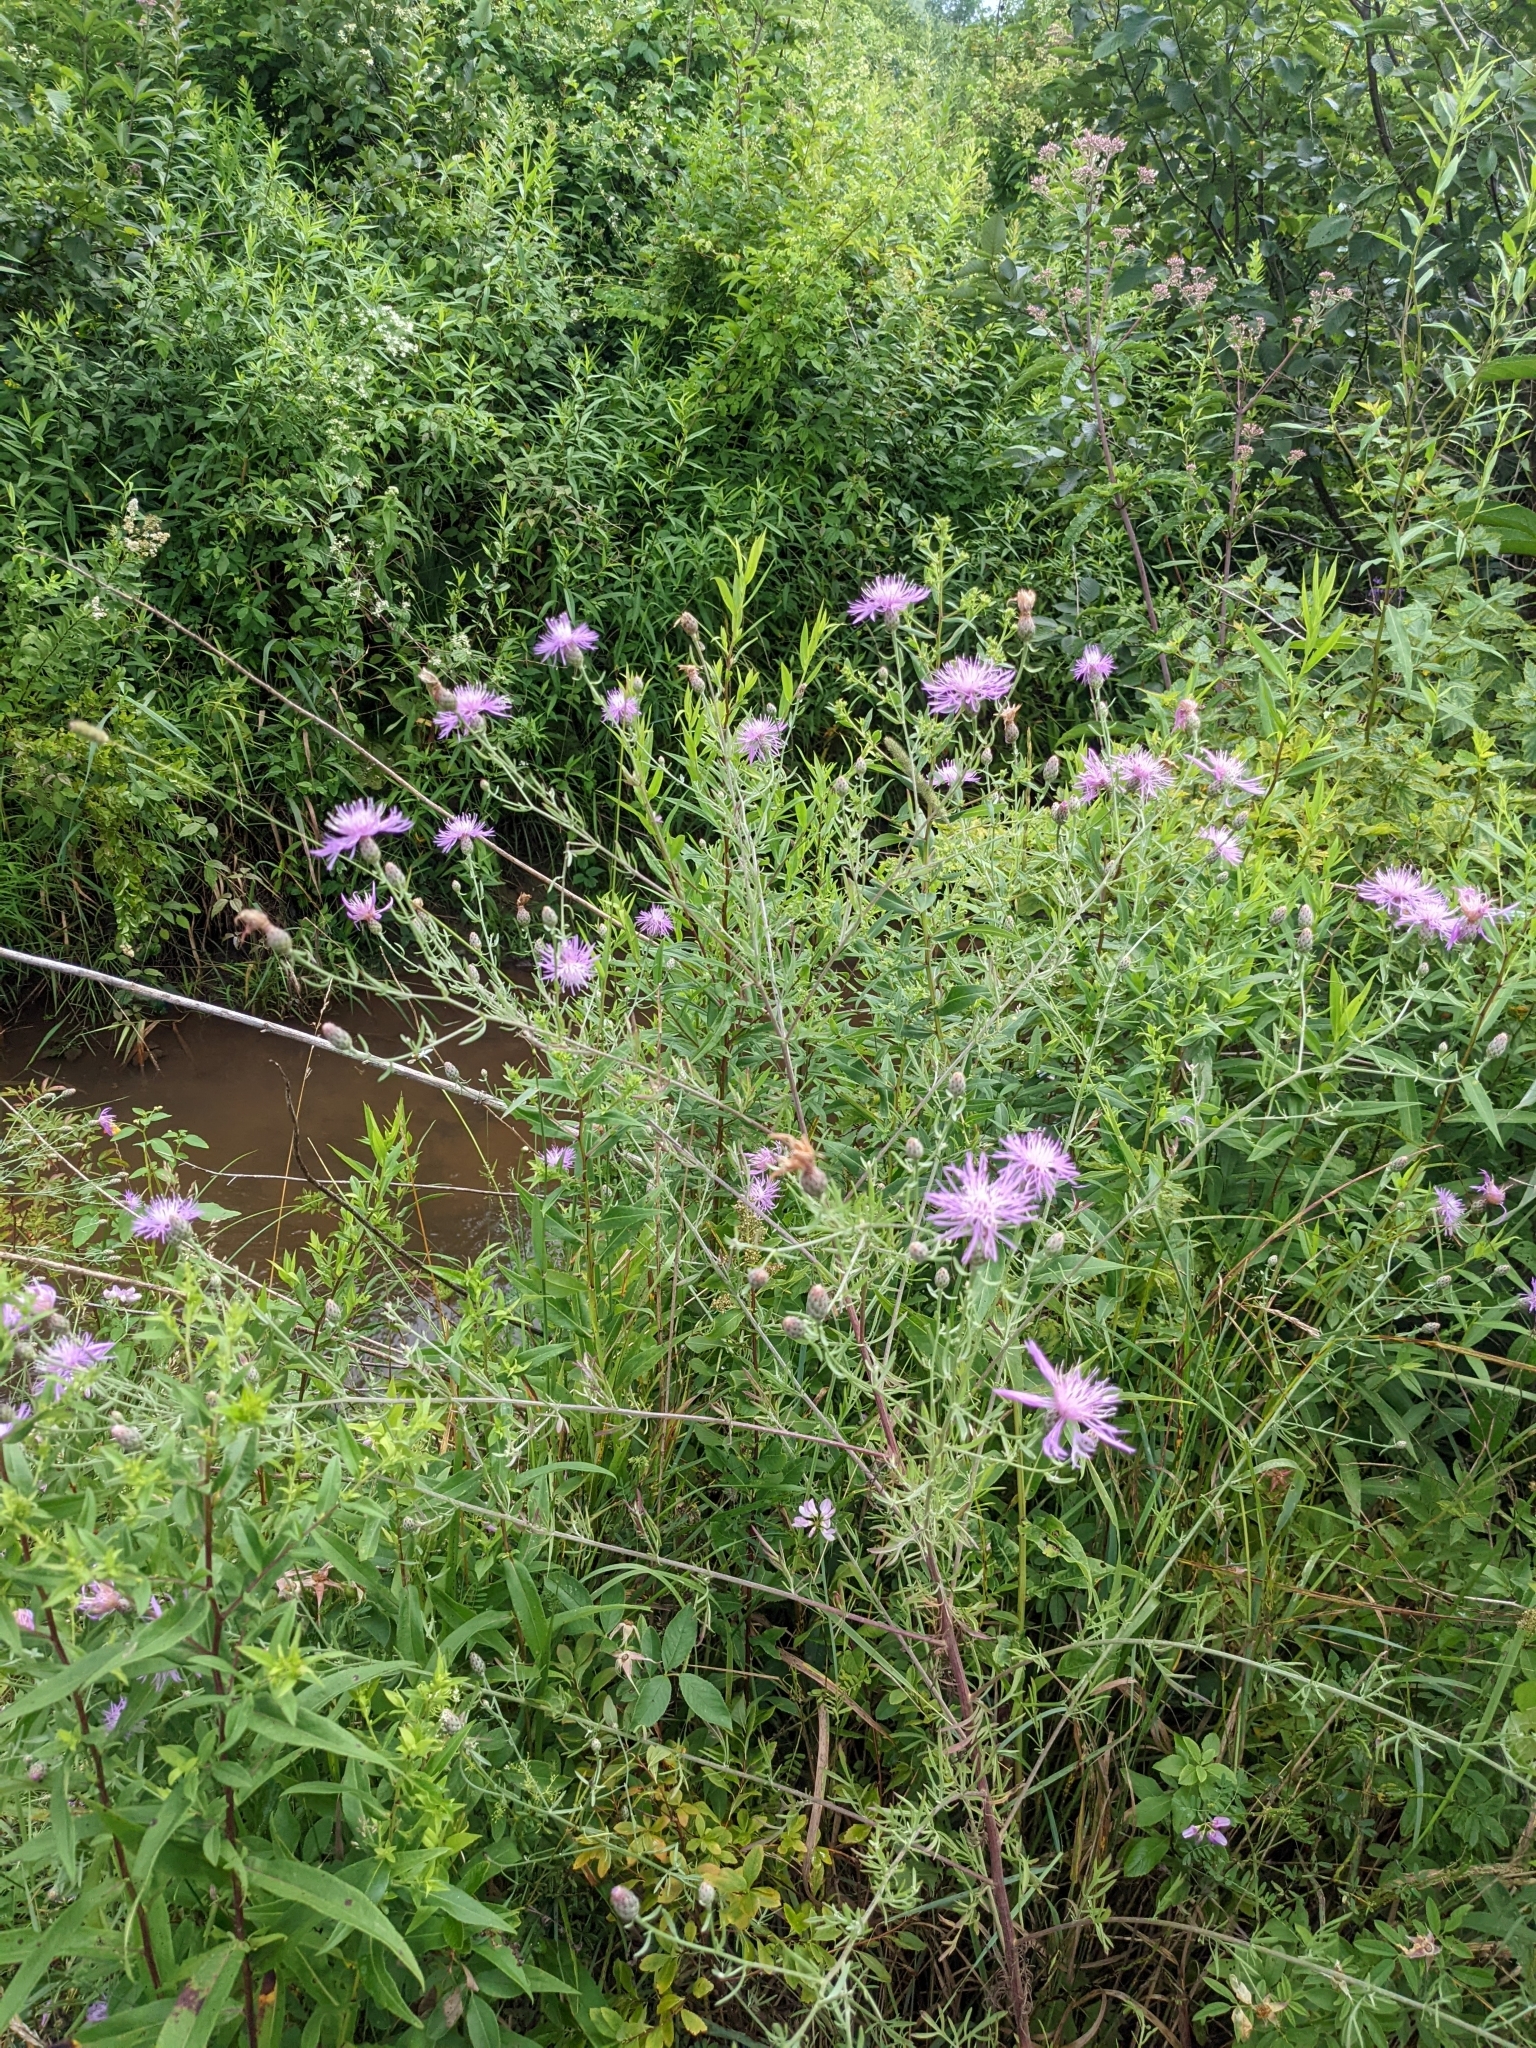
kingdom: Plantae
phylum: Tracheophyta
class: Magnoliopsida
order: Asterales
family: Asteraceae
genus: Centaurea
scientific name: Centaurea stoebe
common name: Spotted knapweed
